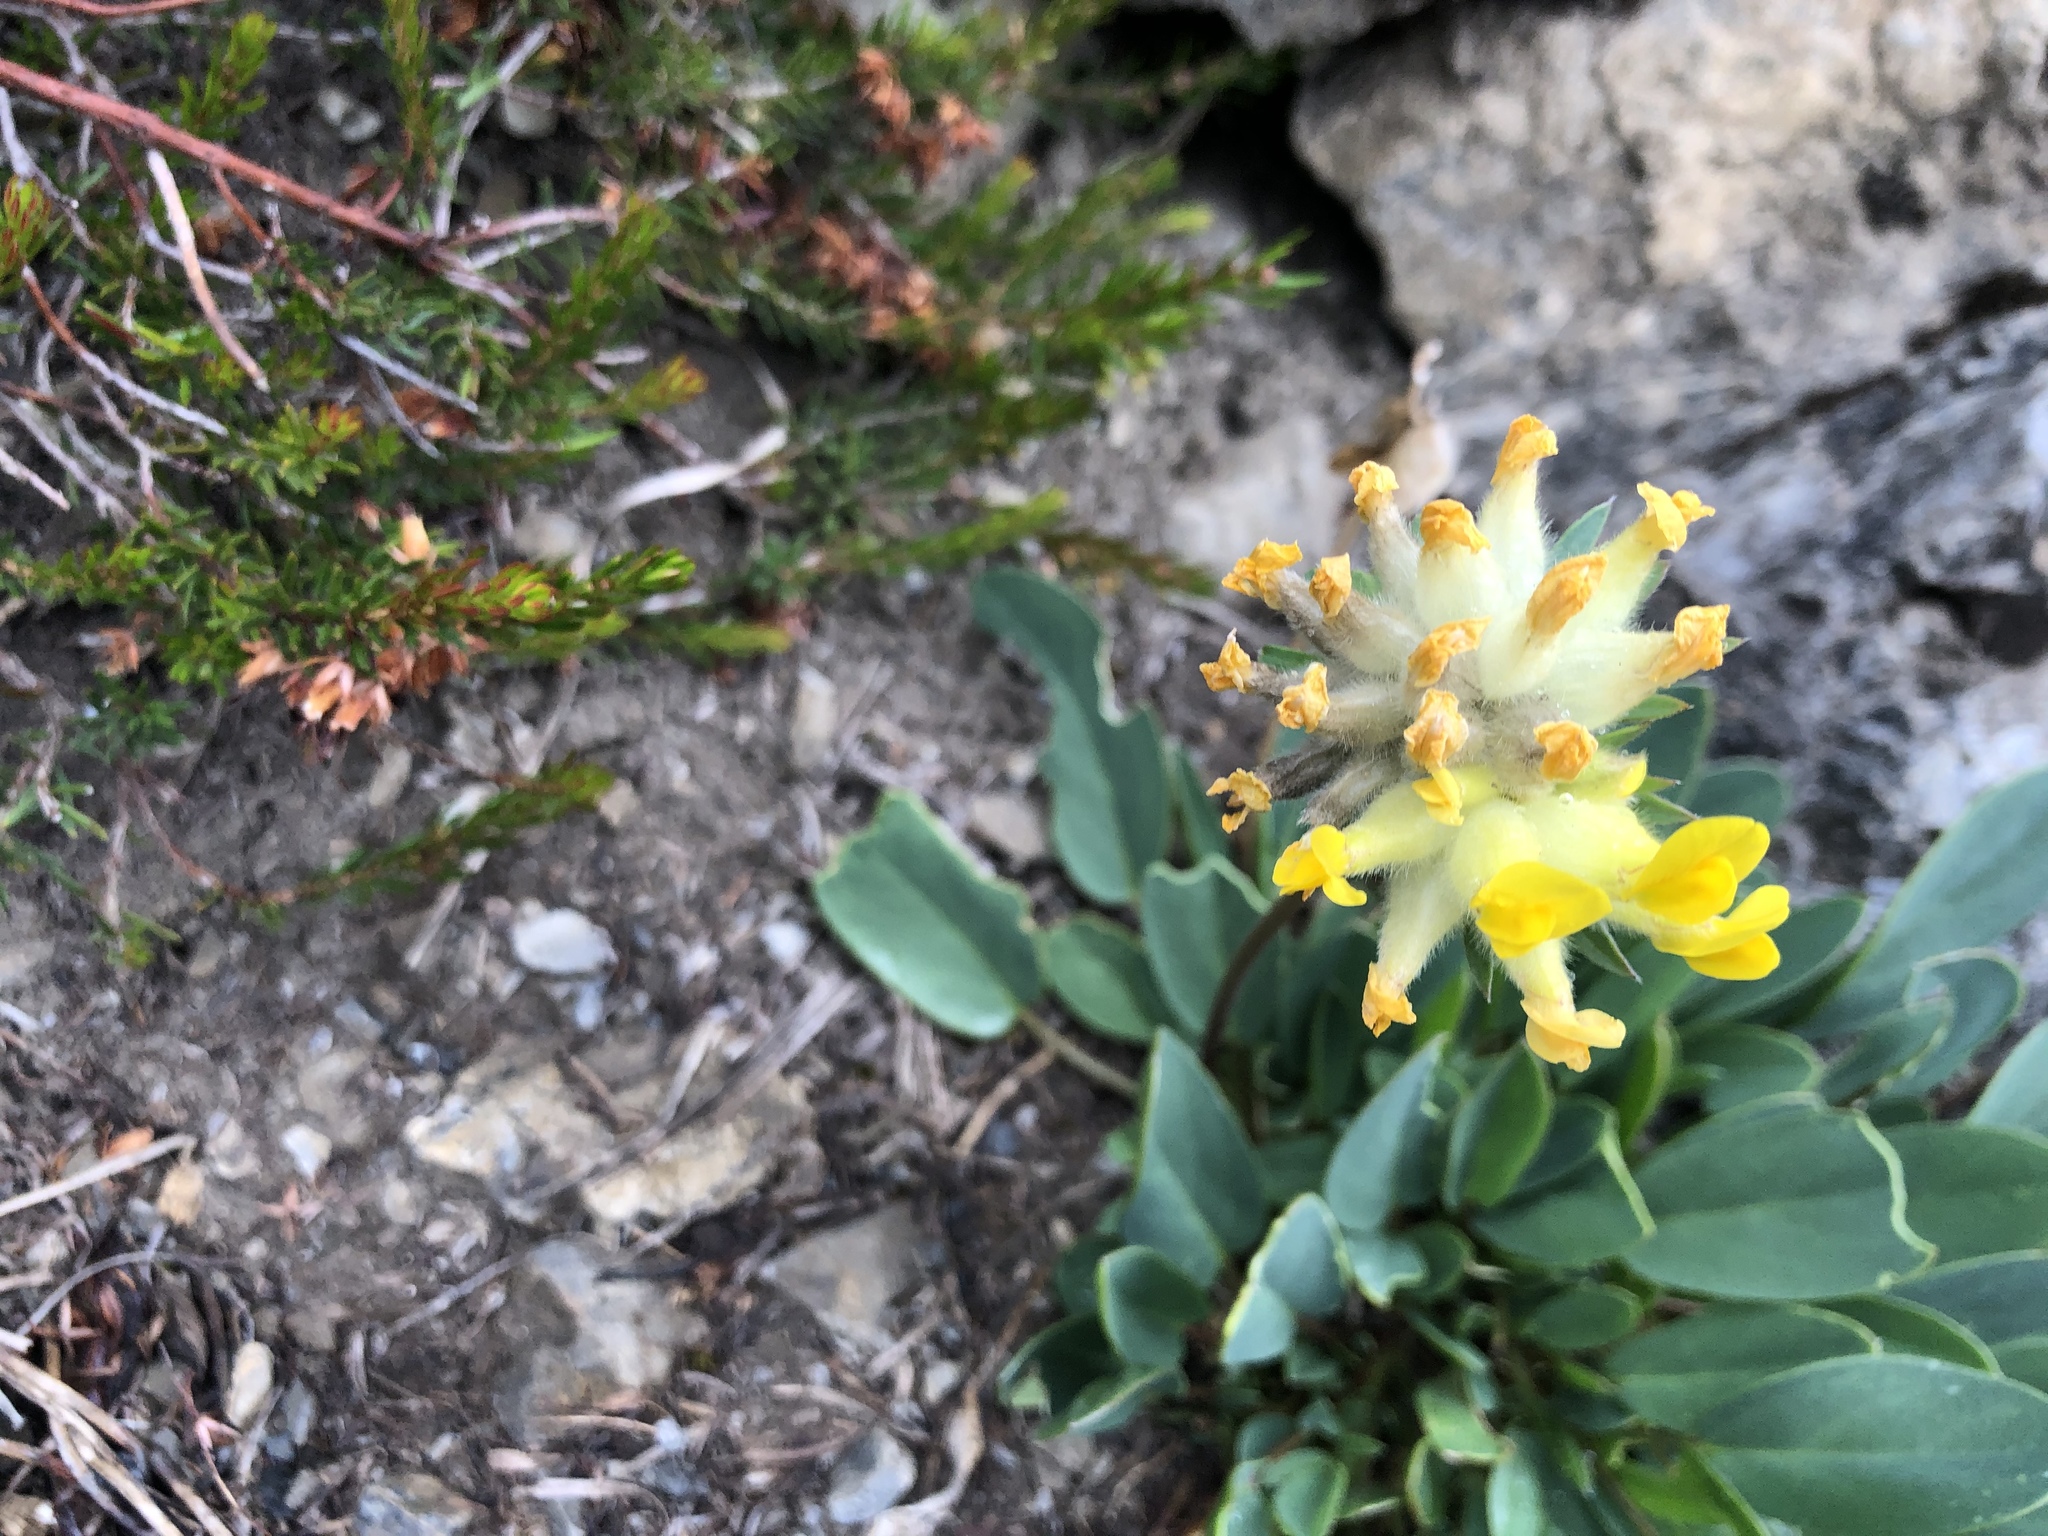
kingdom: Plantae
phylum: Tracheophyta
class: Magnoliopsida
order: Fabales
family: Fabaceae
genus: Anthyllis
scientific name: Anthyllis vulneraria
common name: Kidney vetch
